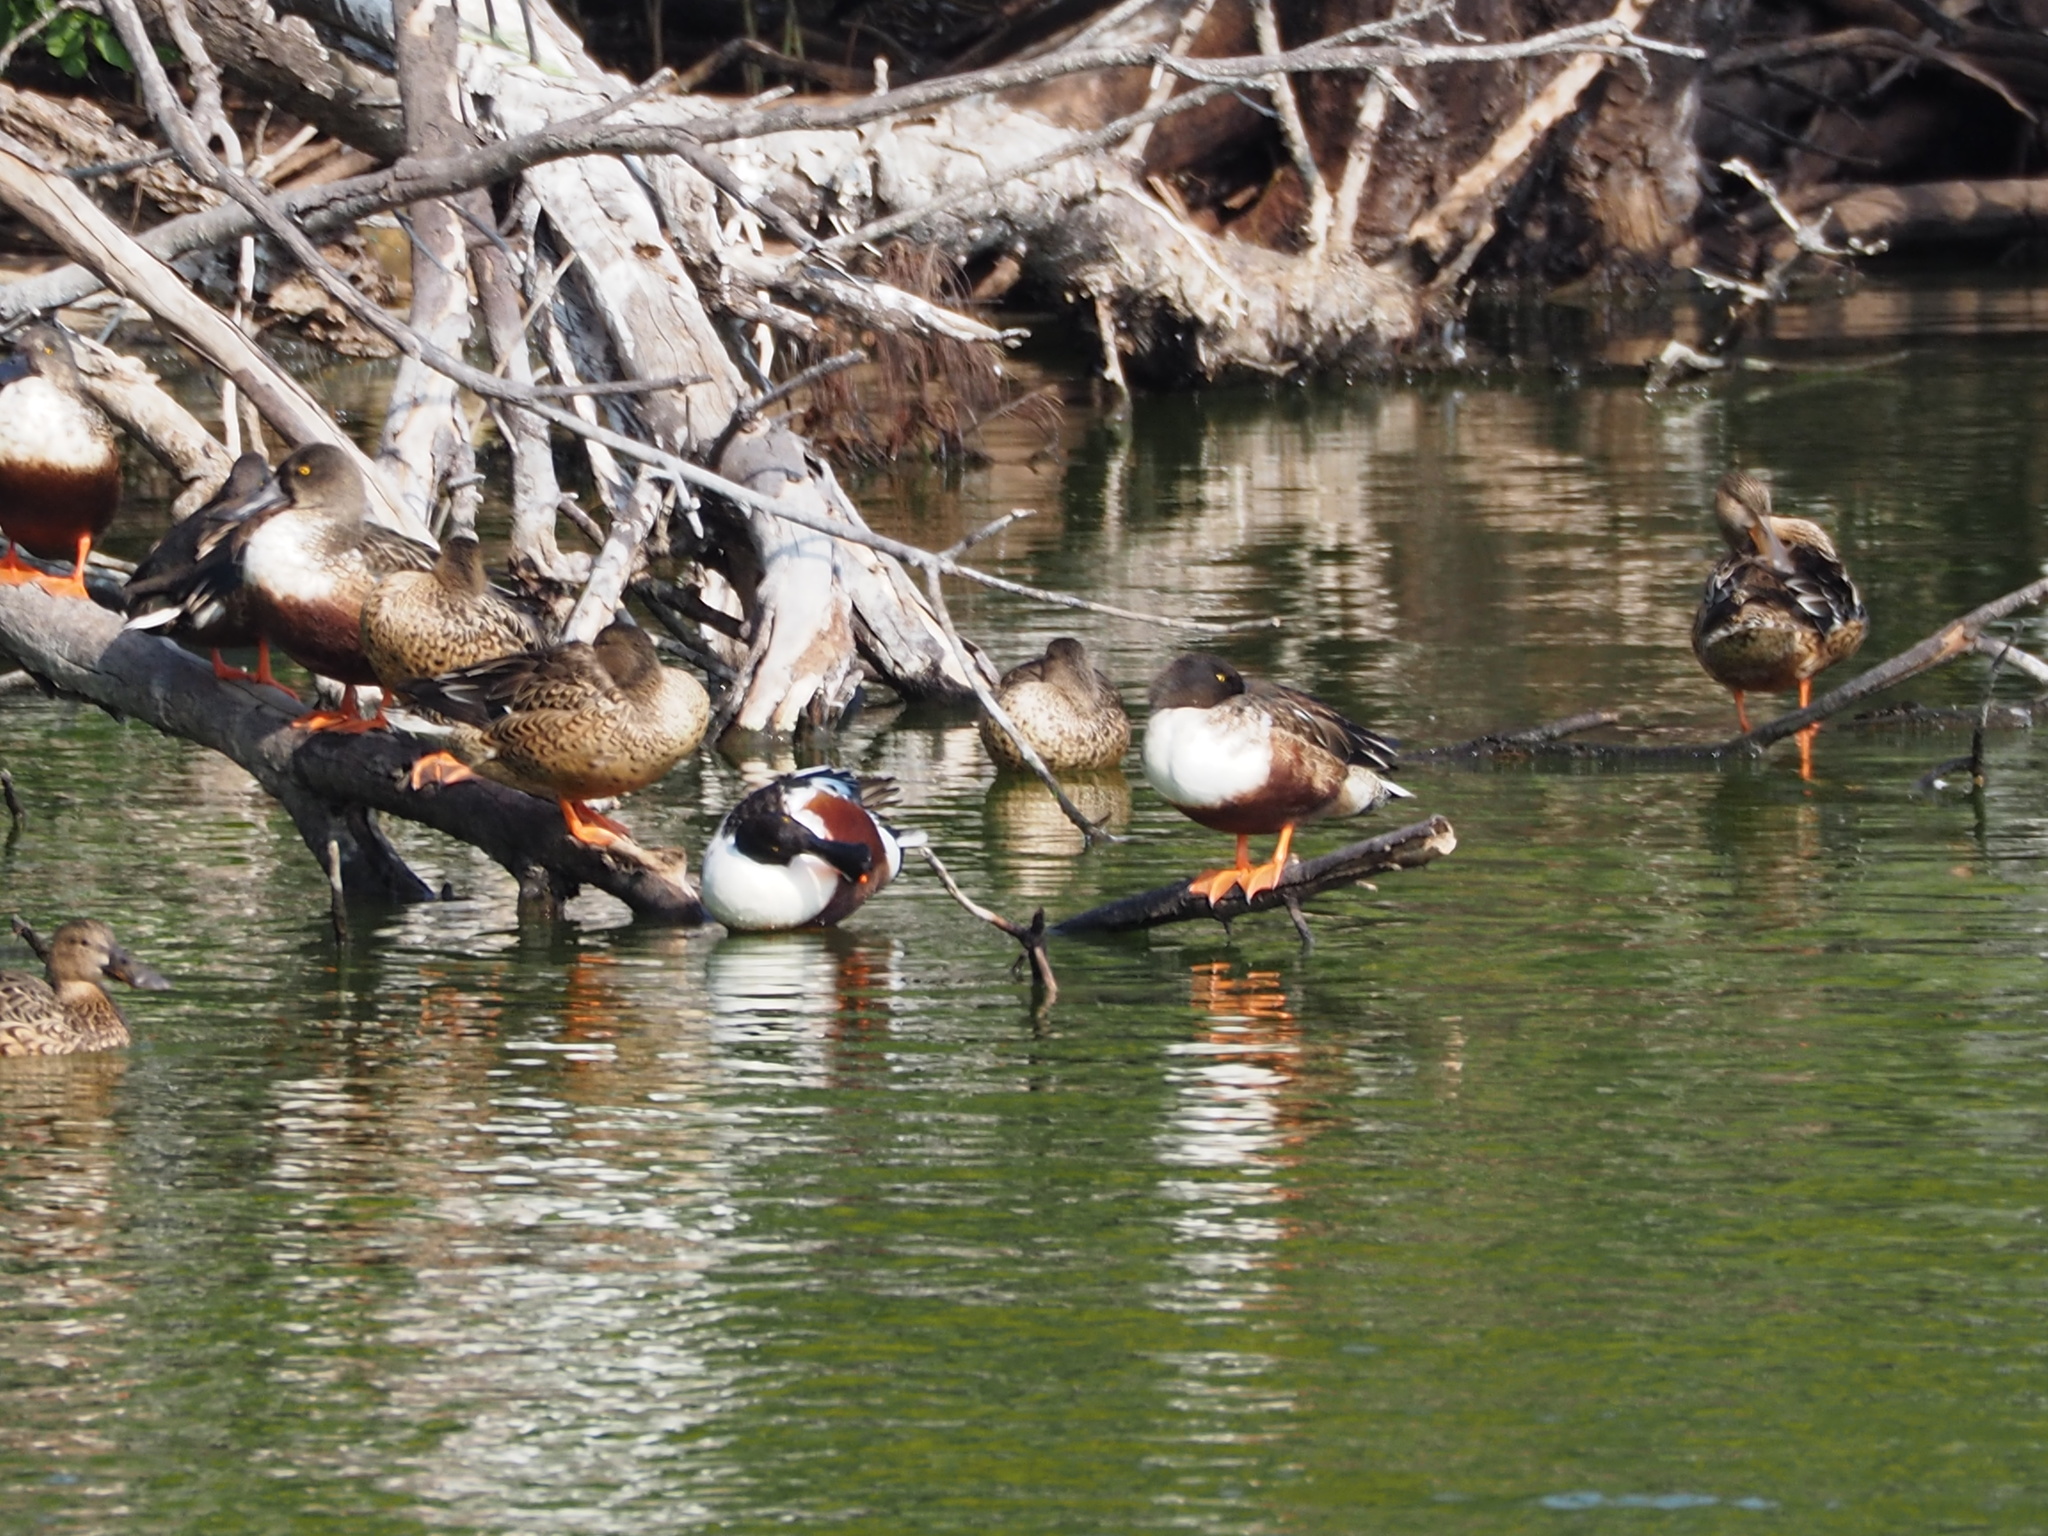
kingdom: Animalia
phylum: Chordata
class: Aves
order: Anseriformes
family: Anatidae
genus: Spatula
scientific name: Spatula clypeata
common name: Northern shoveler
